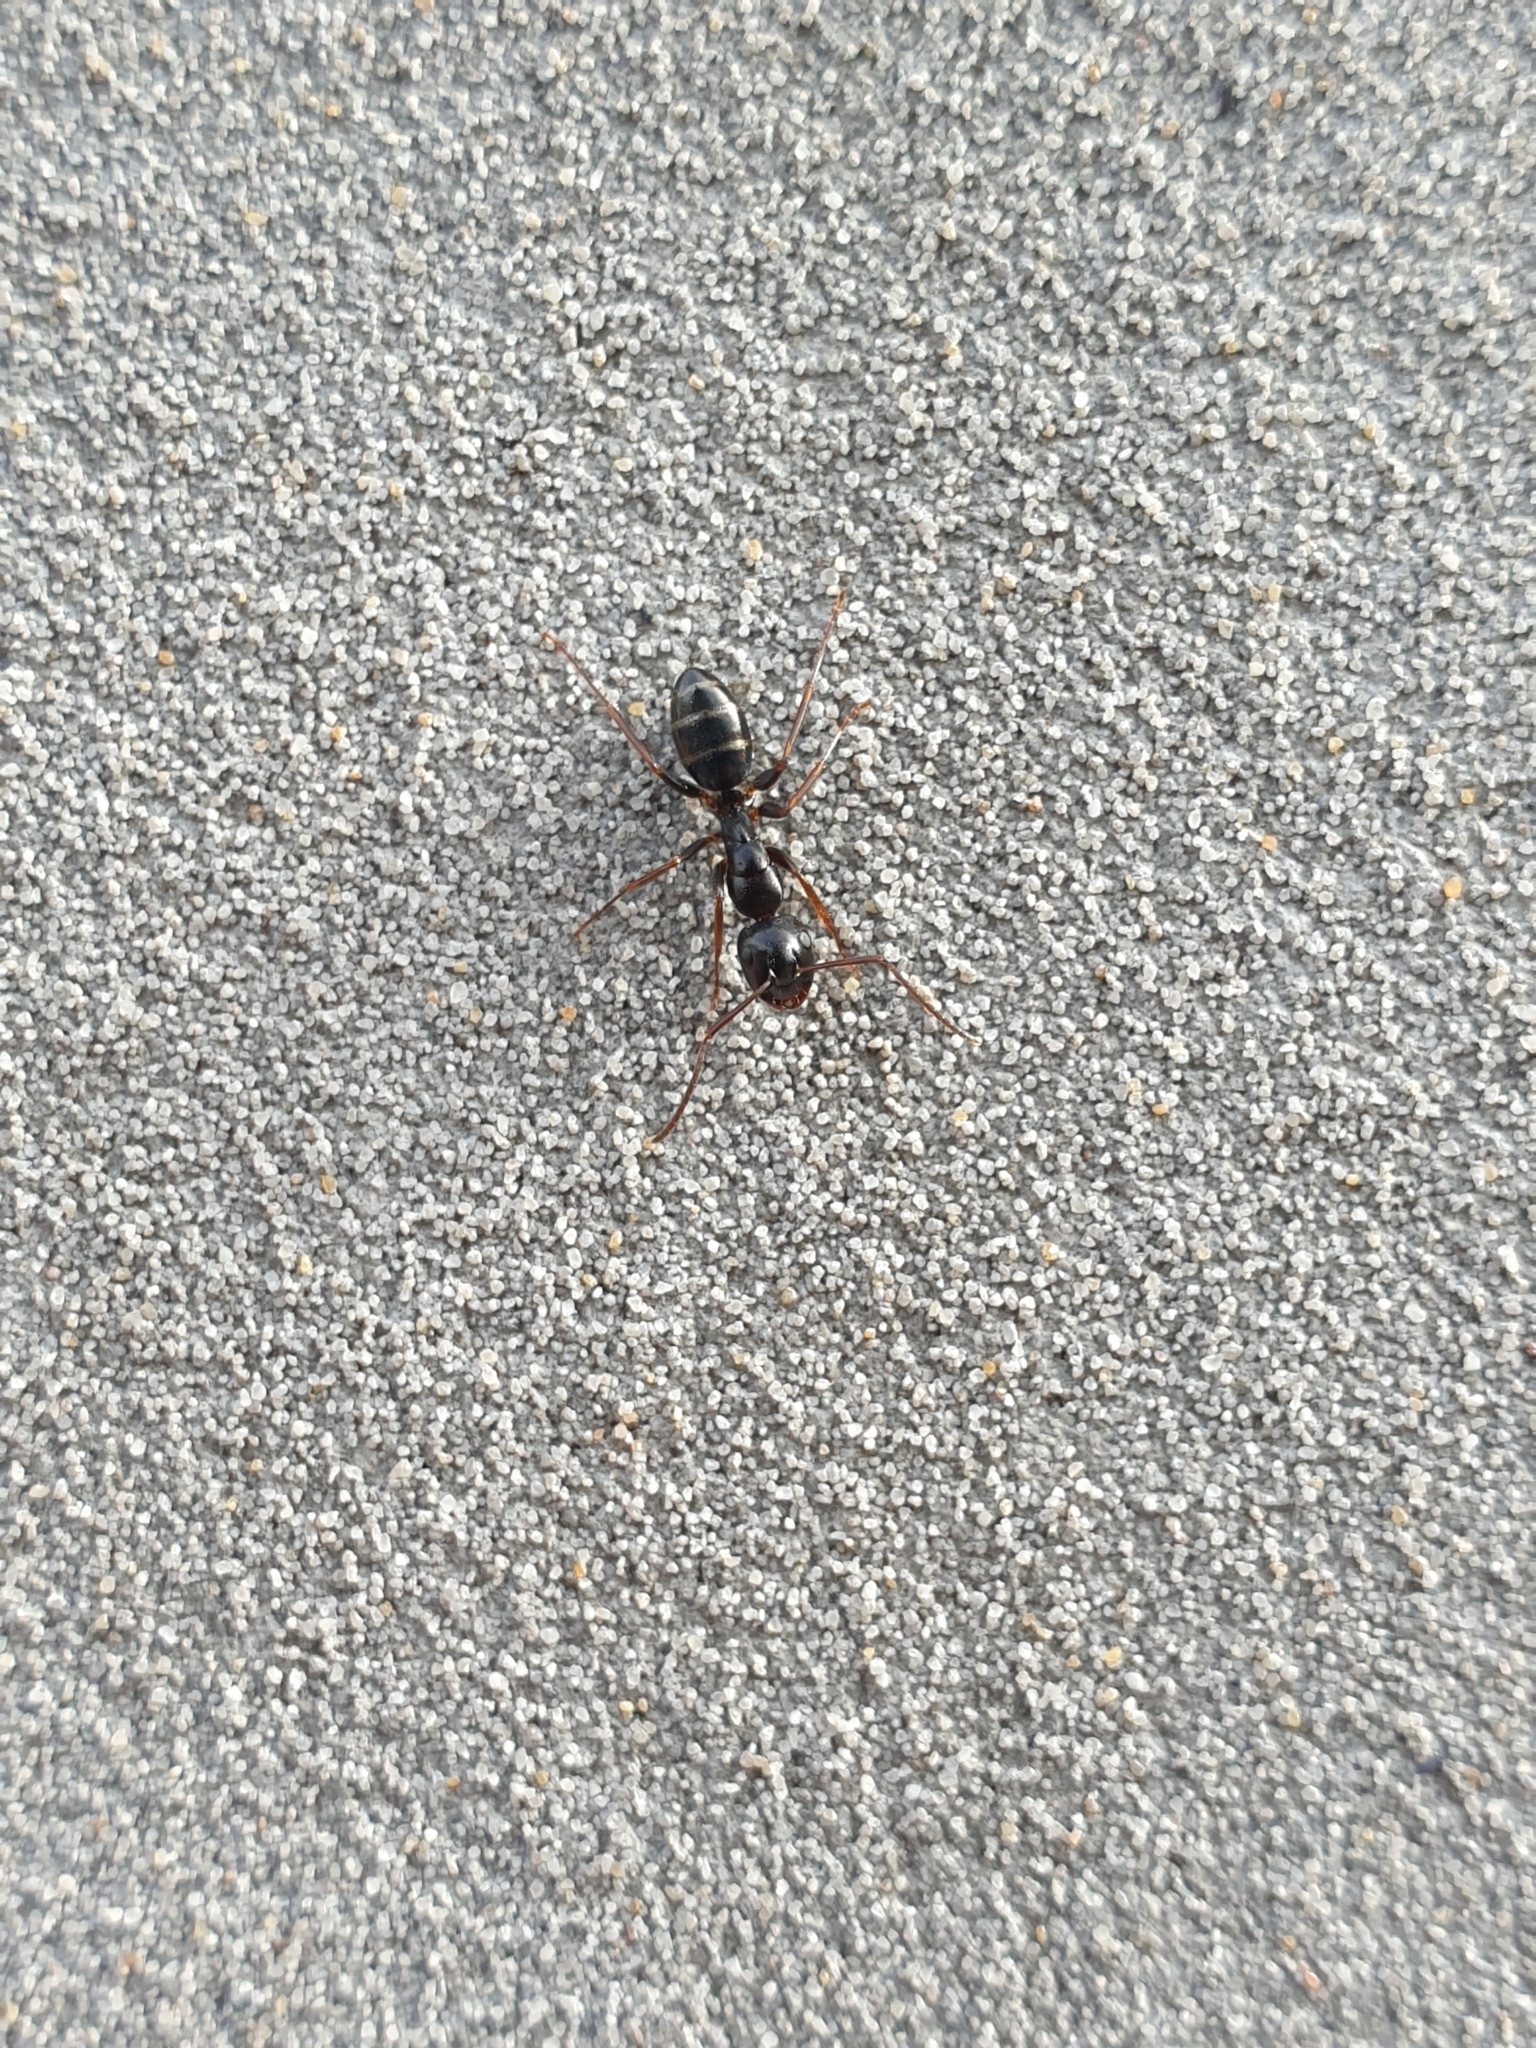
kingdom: Animalia
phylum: Arthropoda
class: Insecta
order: Hymenoptera
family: Formicidae
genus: Camponotus
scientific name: Camponotus fallax
